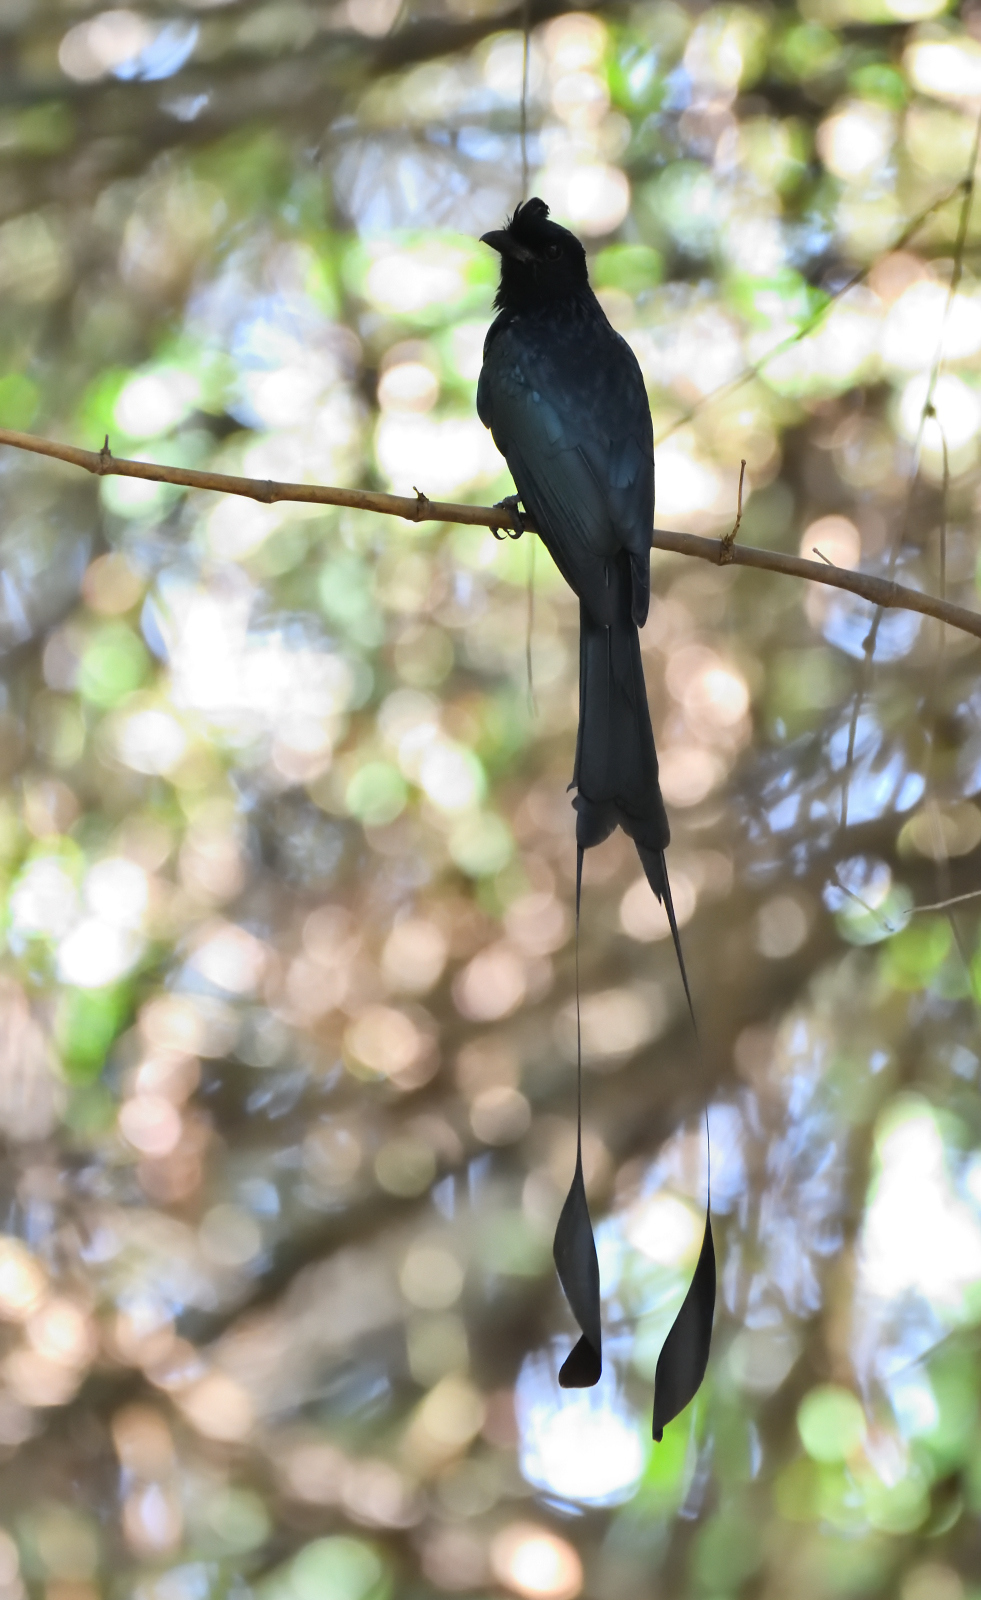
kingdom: Animalia
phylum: Chordata
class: Aves
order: Passeriformes
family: Dicruridae
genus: Dicrurus
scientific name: Dicrurus paradiseus
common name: Greater racket-tailed drongo
